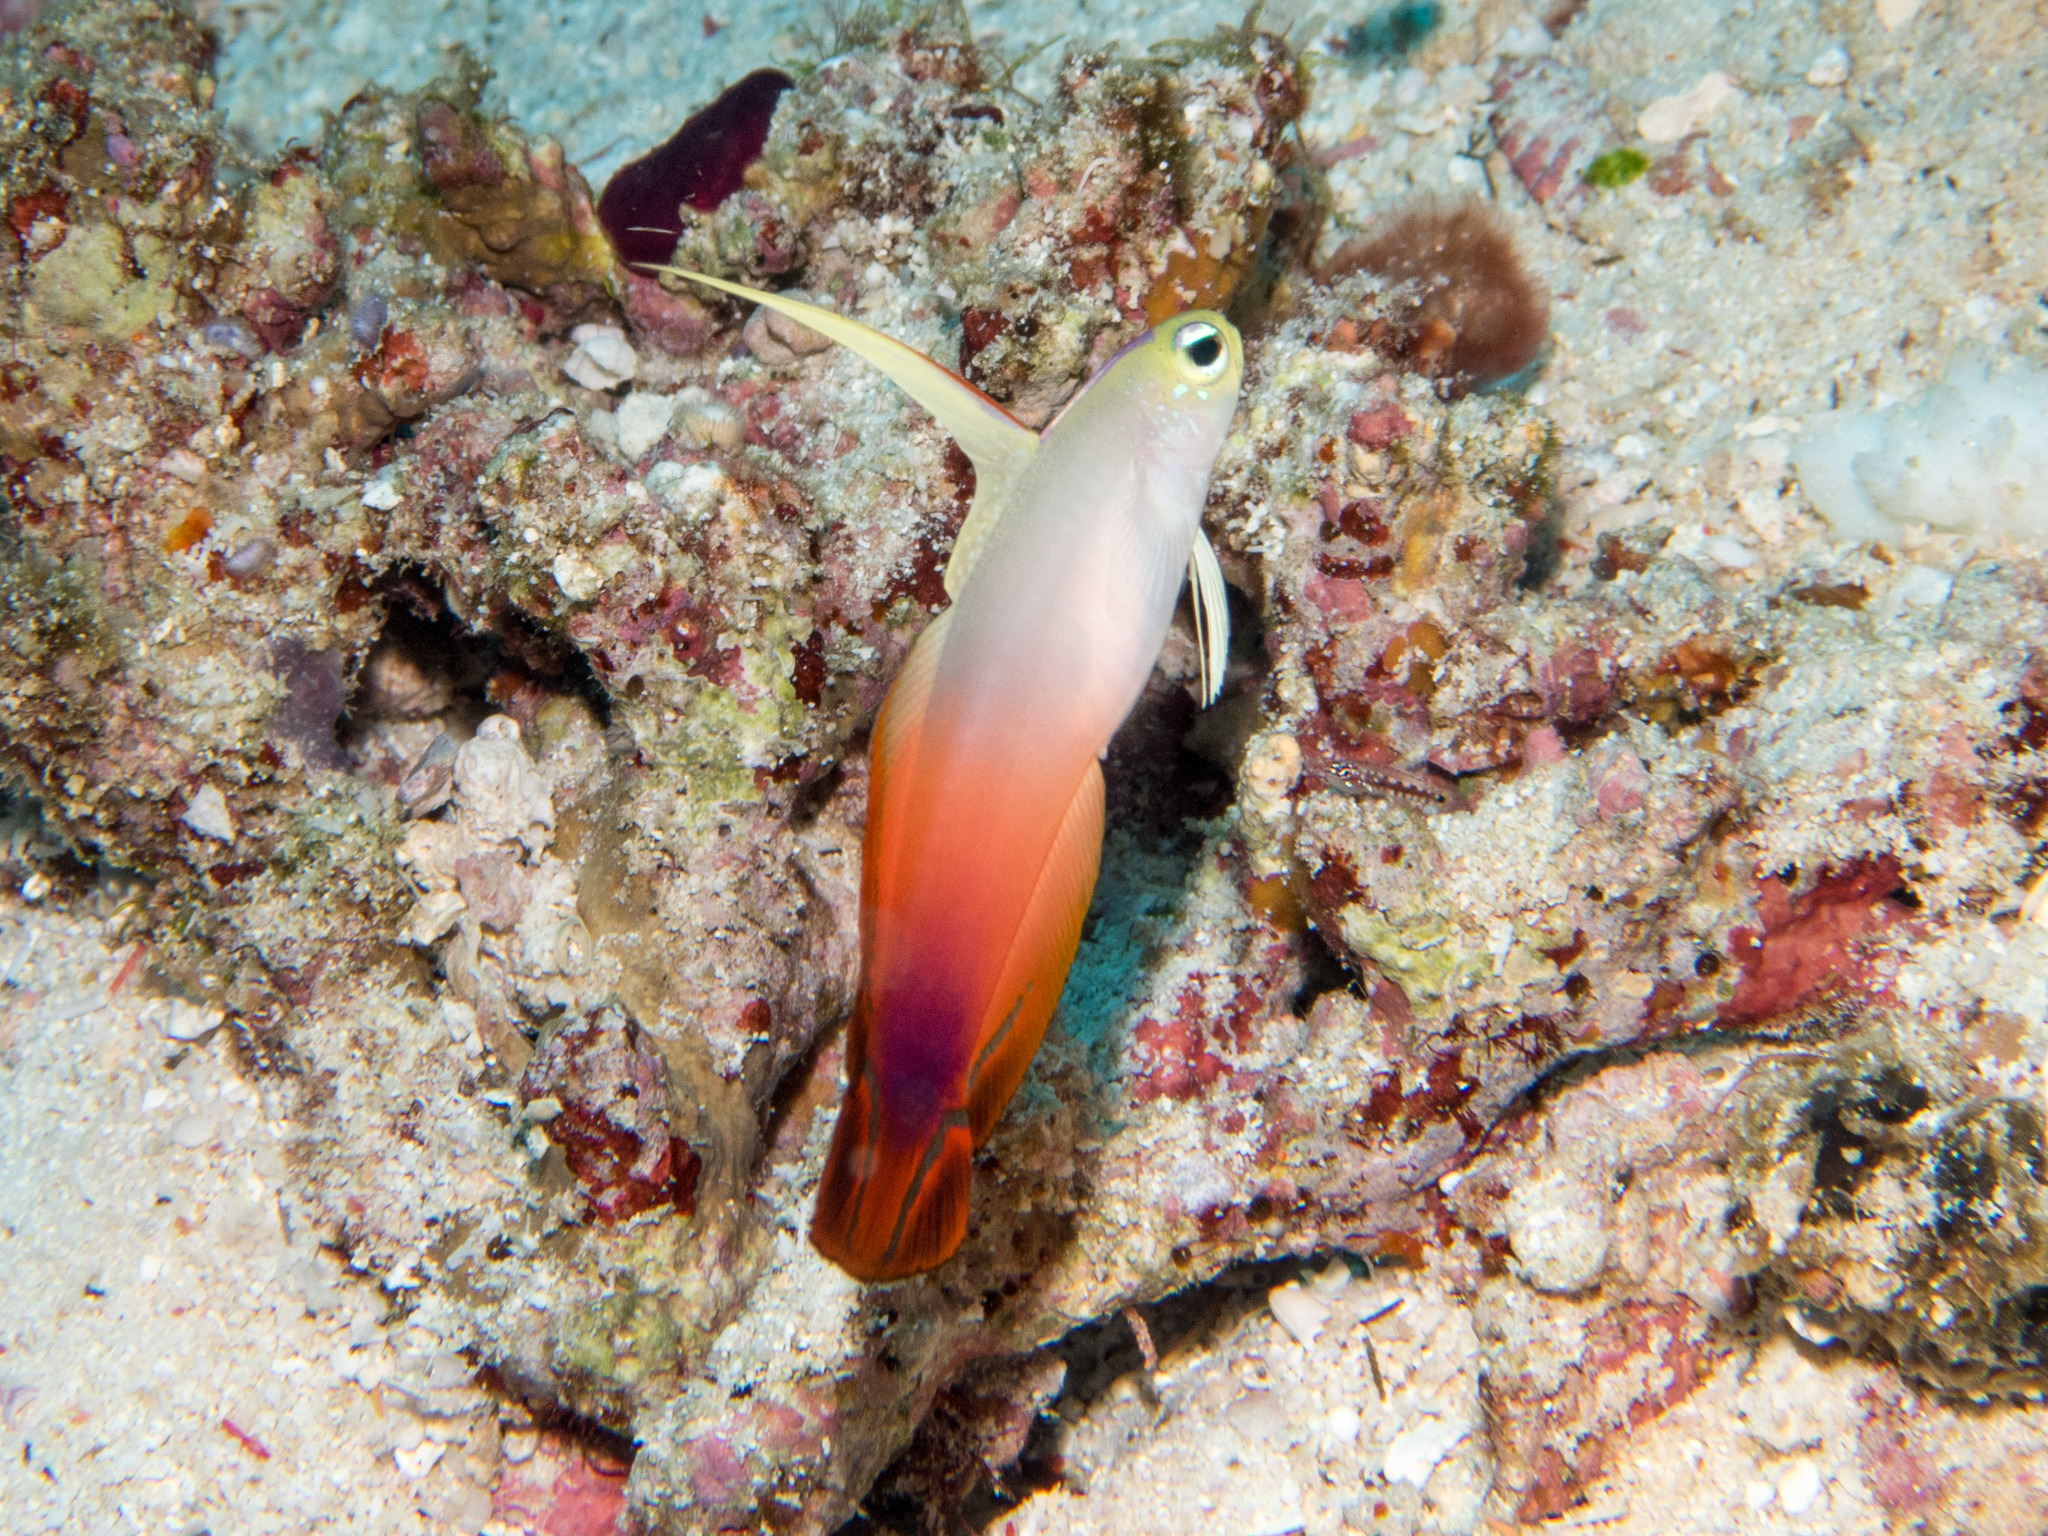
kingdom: Animalia
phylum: Chordata
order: Perciformes
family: Microdesmidae
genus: Nemateleotris
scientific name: Nemateleotris magnifica
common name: Fire goby
